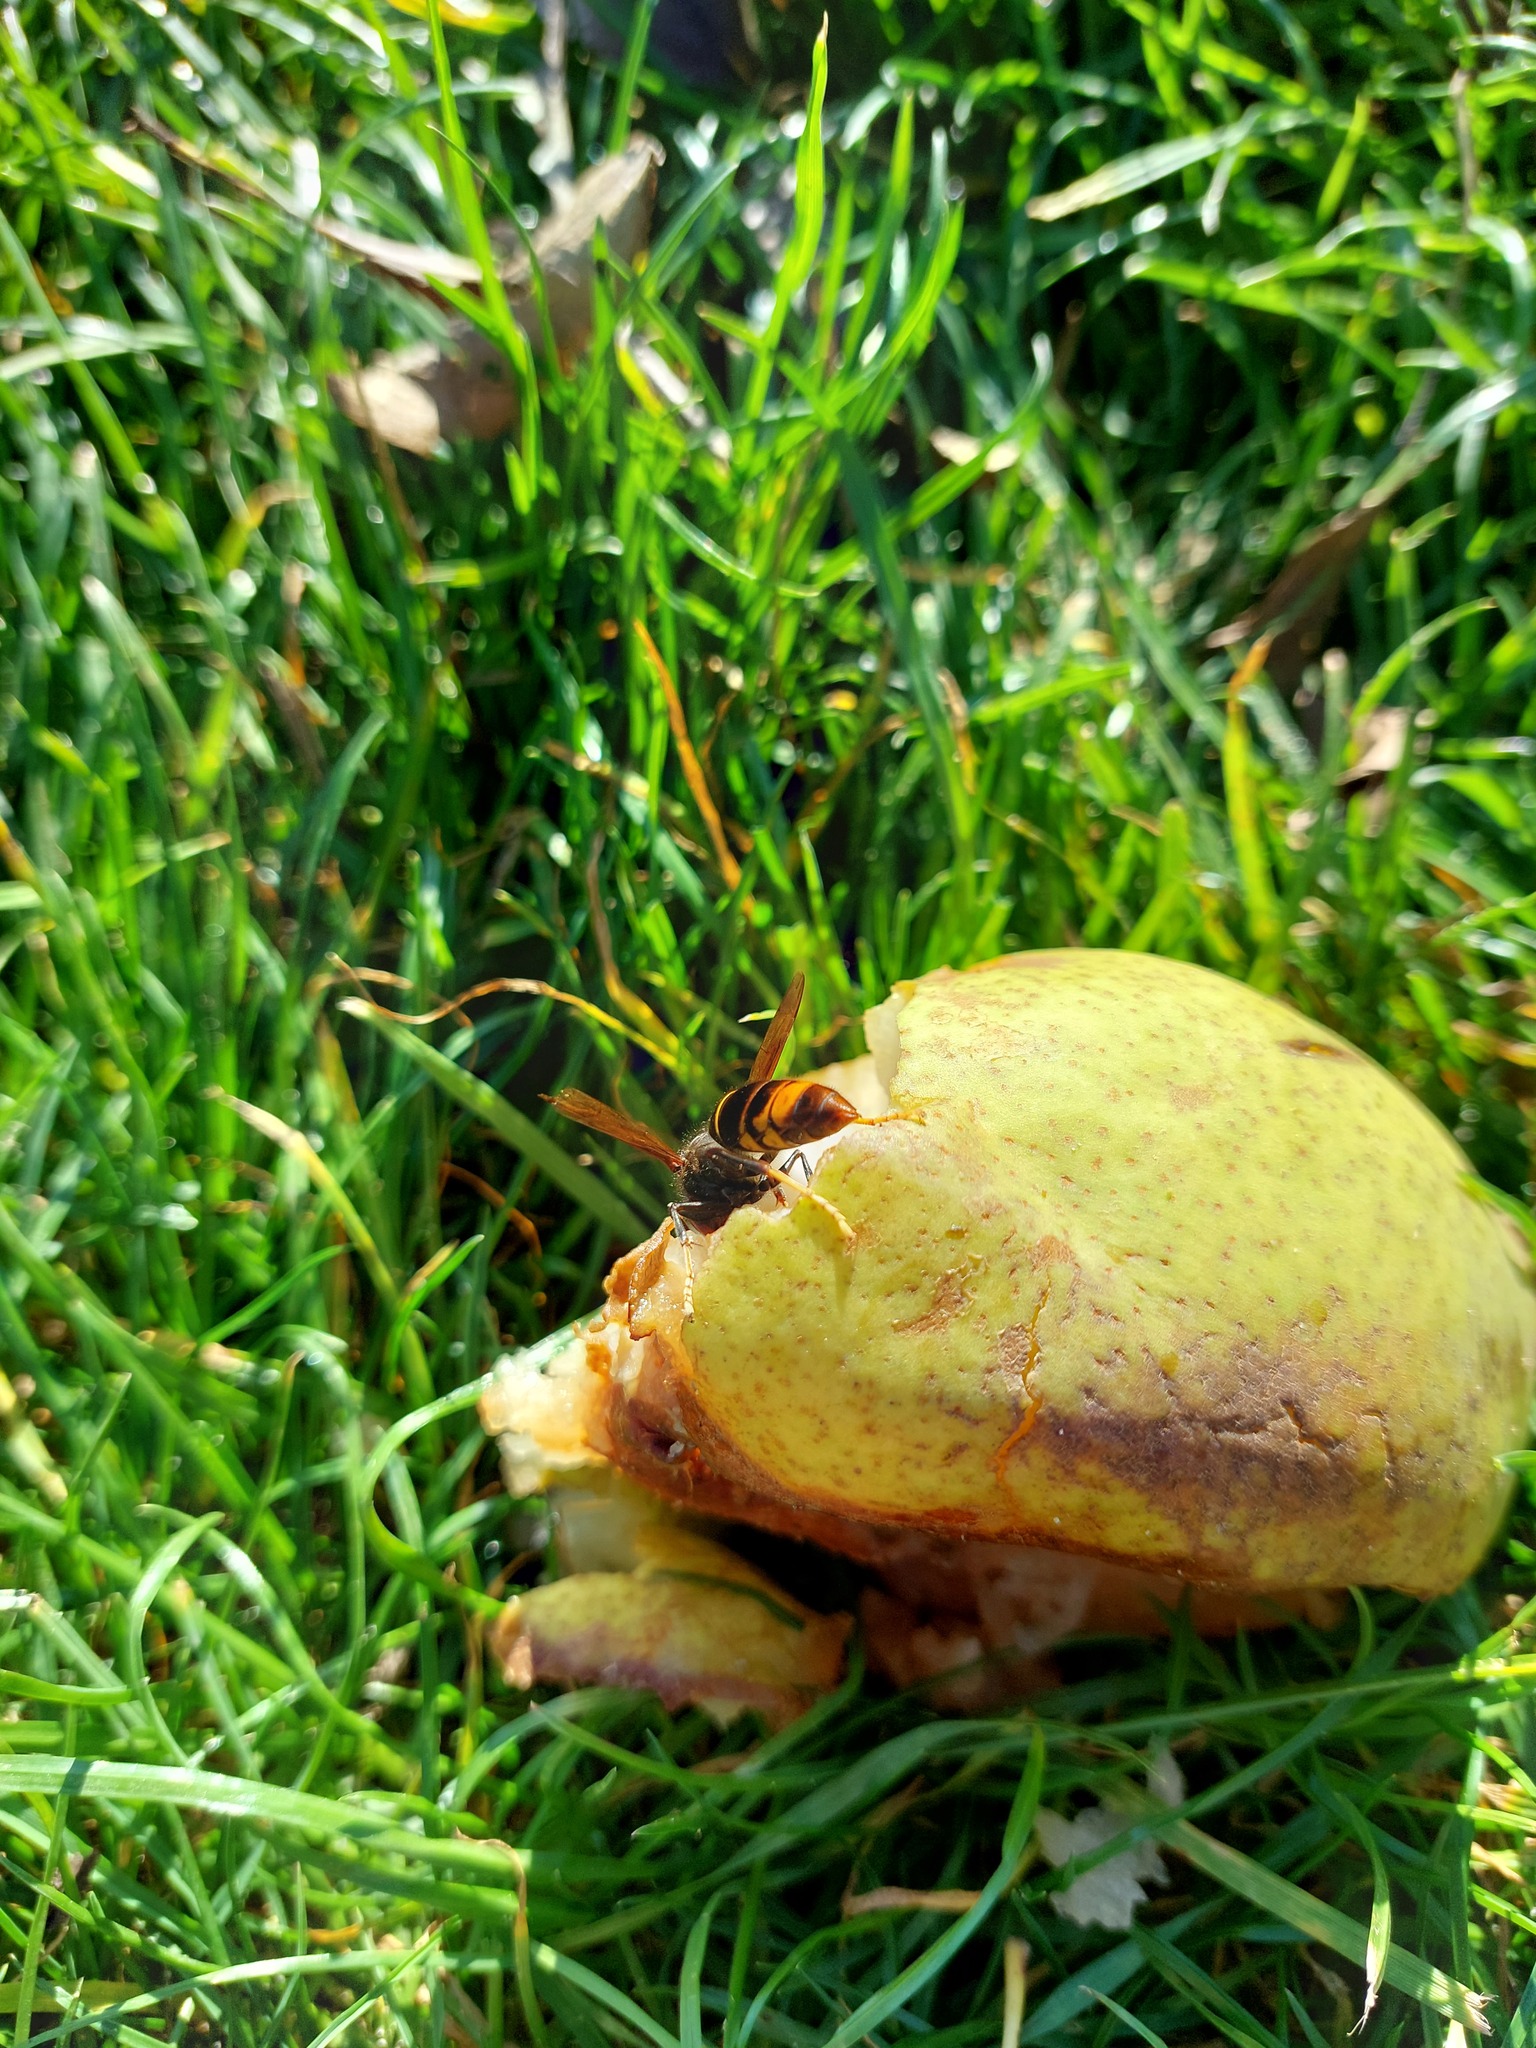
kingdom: Animalia
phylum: Arthropoda
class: Insecta
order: Hymenoptera
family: Vespidae
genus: Vespa
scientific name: Vespa velutina
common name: Asian hornet
